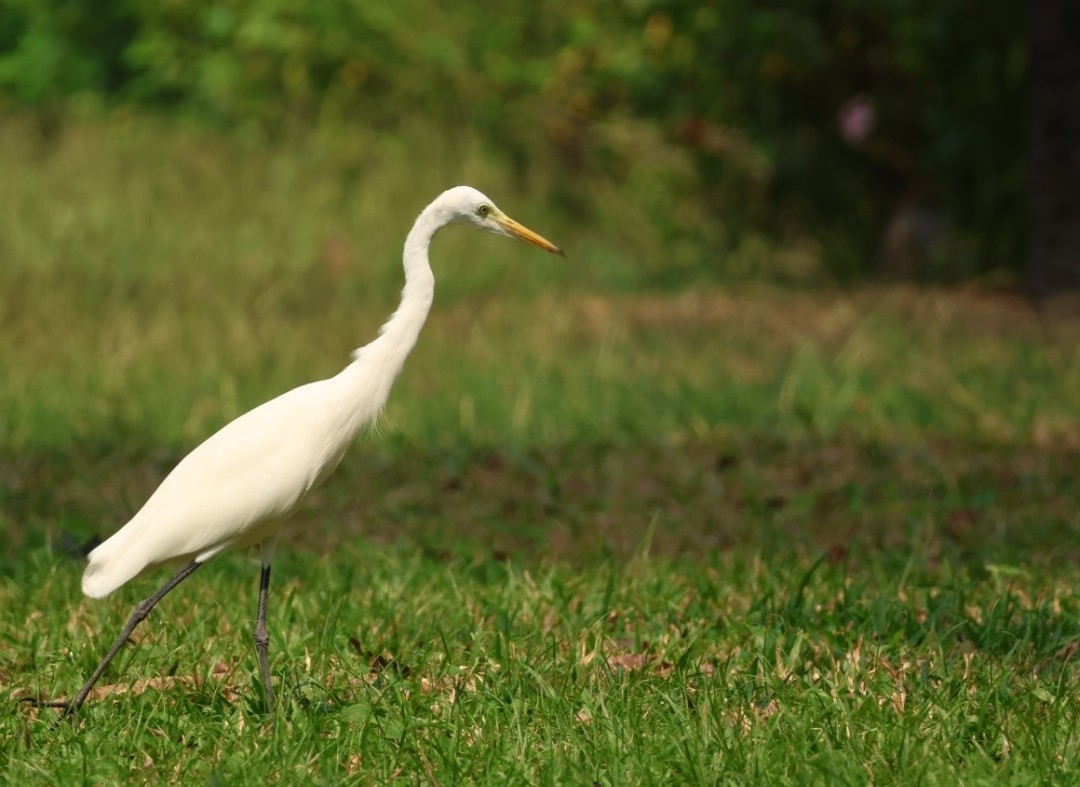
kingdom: Animalia
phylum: Chordata
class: Aves
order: Pelecaniformes
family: Ardeidae
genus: Egretta
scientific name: Egretta intermedia
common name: Intermediate egret
